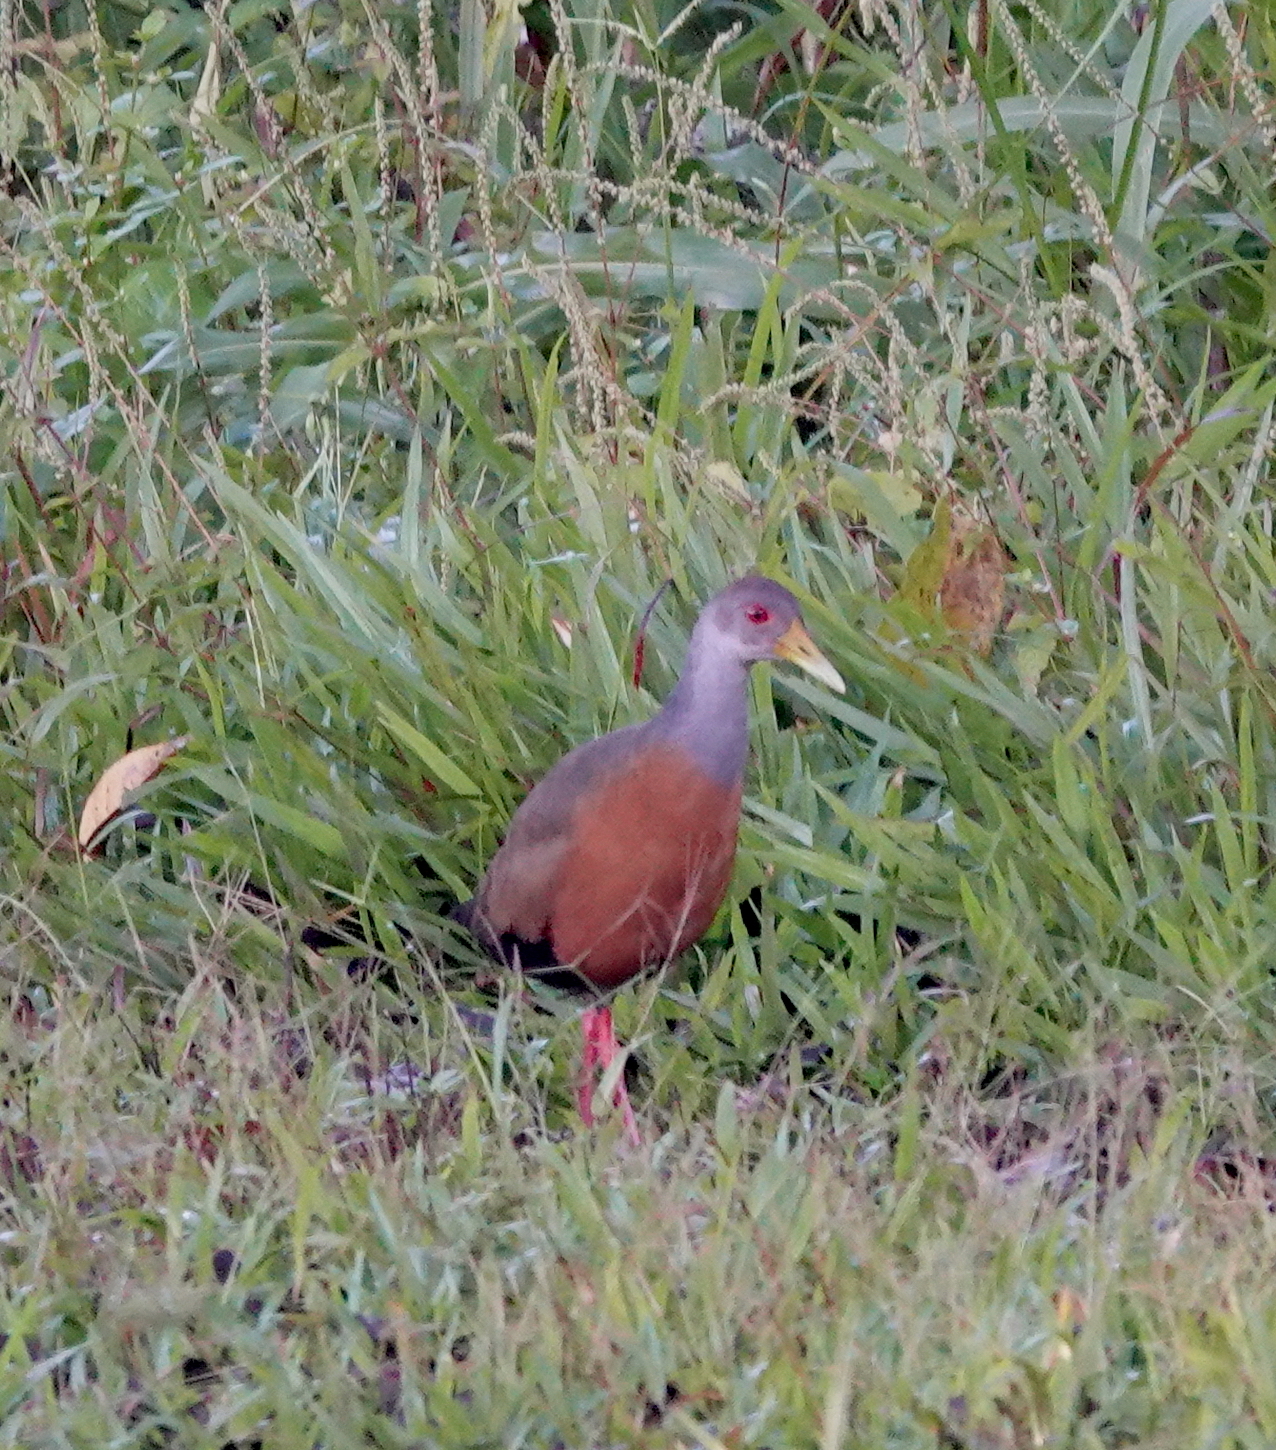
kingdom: Animalia
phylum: Chordata
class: Aves
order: Gruiformes
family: Rallidae
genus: Aramides
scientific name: Aramides cajanea
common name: Gray-necked wood-rail
